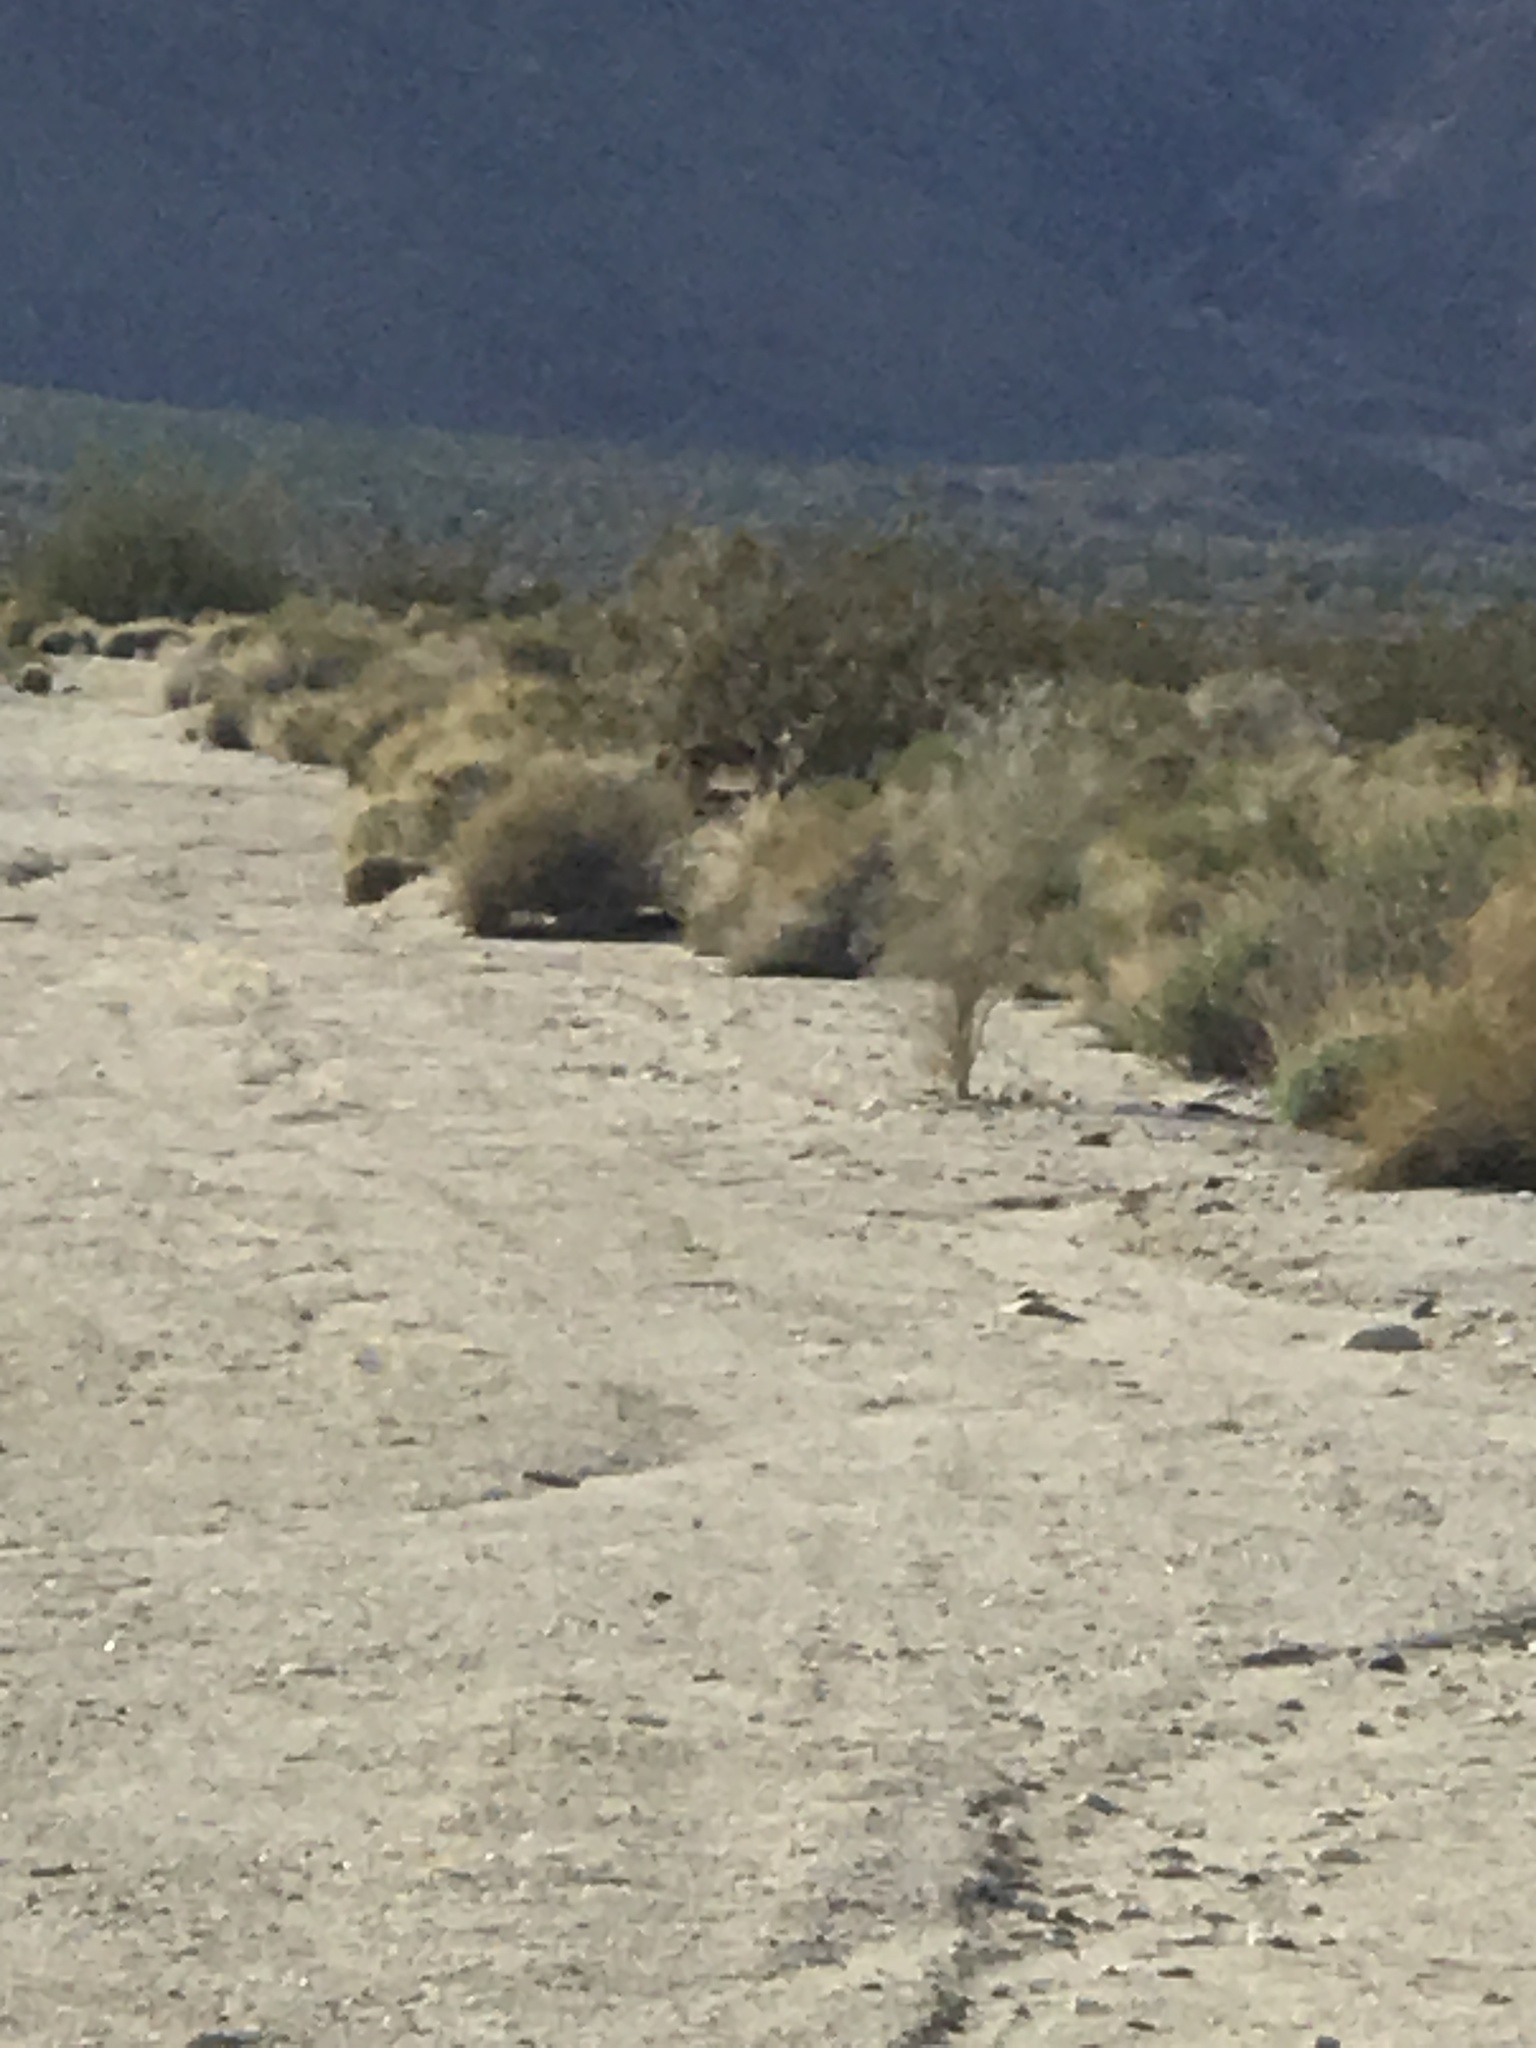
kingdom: Animalia
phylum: Chordata
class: Mammalia
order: Carnivora
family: Canidae
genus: Canis
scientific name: Canis latrans
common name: Coyote
